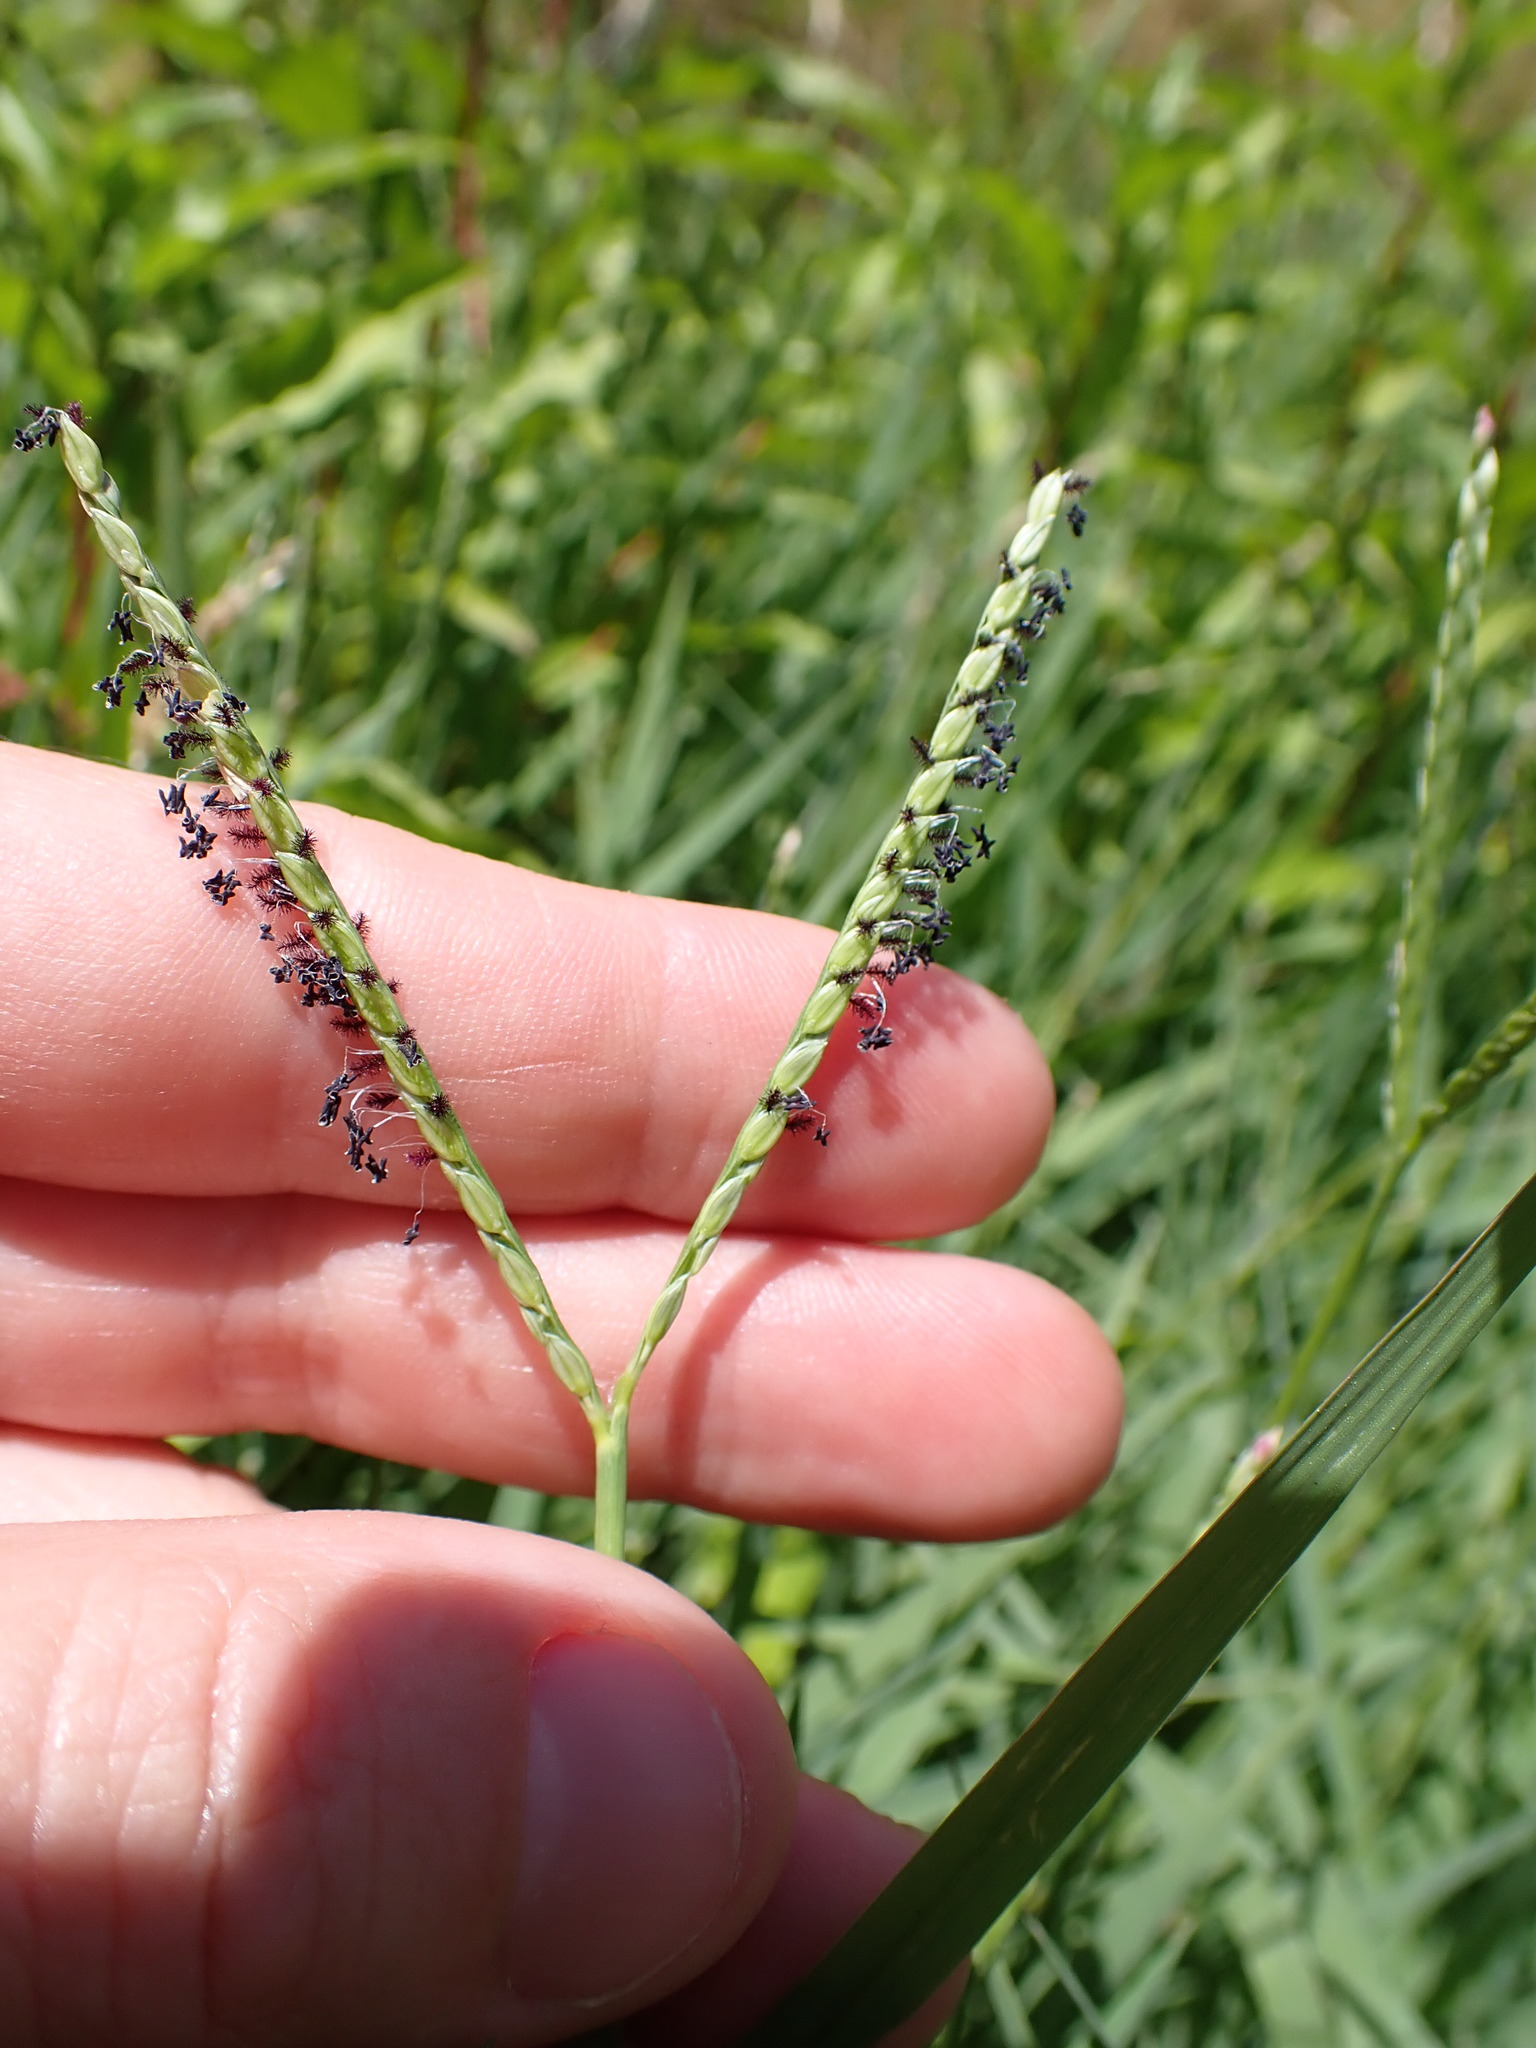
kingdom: Plantae
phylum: Tracheophyta
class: Liliopsida
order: Poales
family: Poaceae
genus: Paspalum
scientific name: Paspalum distichum
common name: Knotgrass
